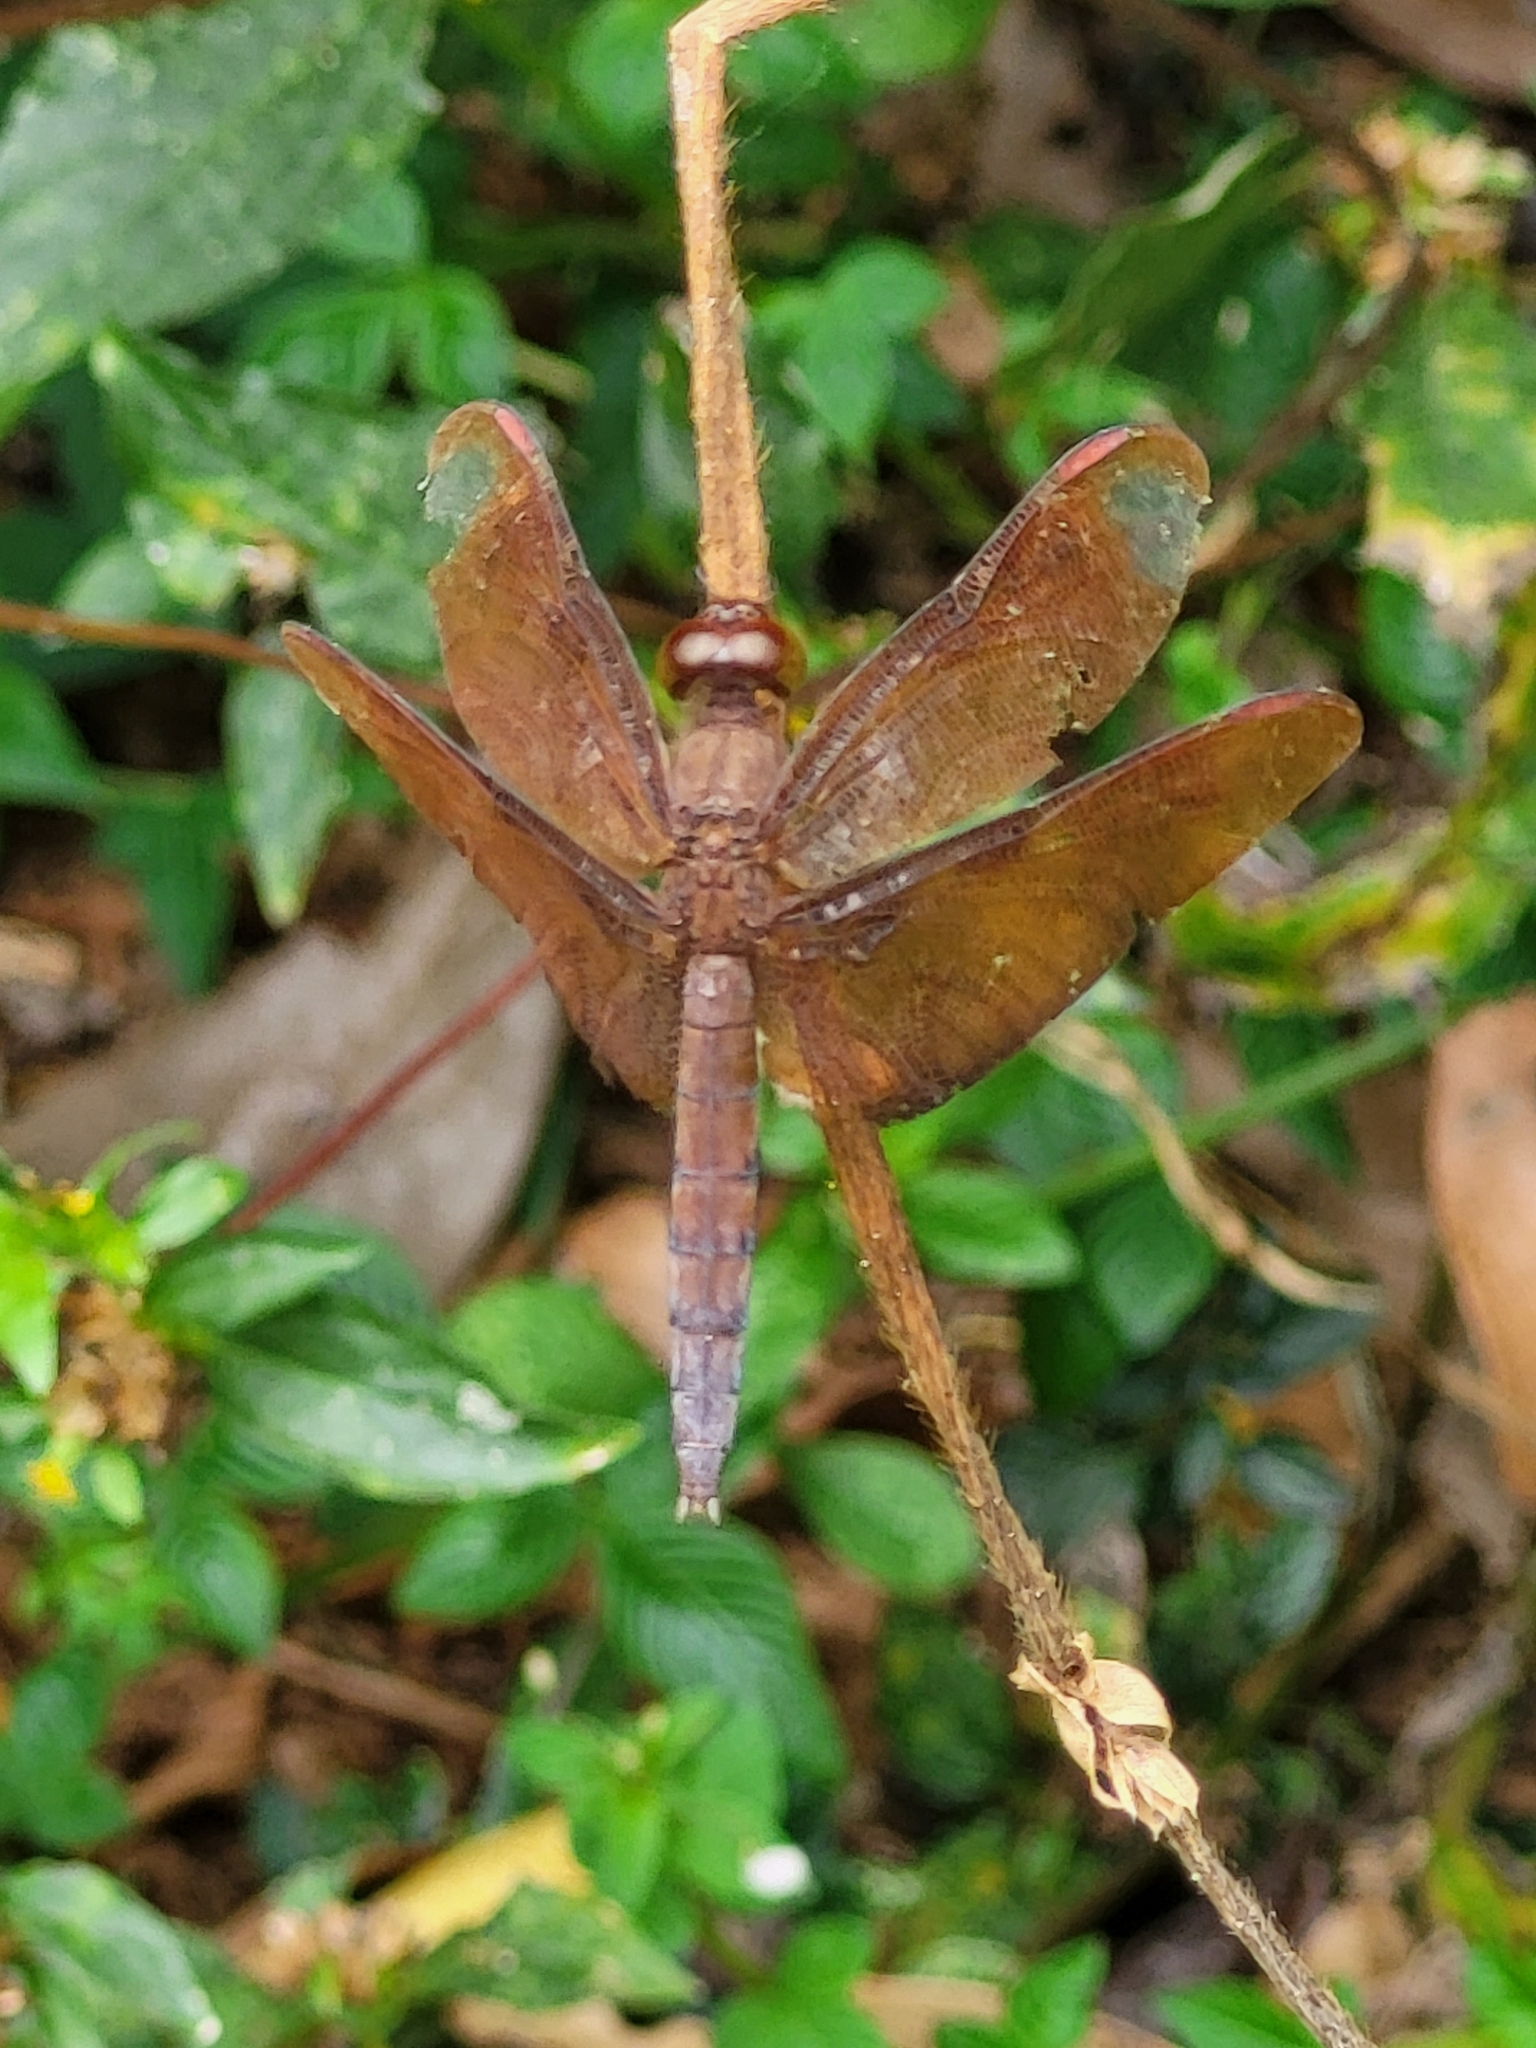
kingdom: Animalia
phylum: Arthropoda
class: Insecta
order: Odonata
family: Libellulidae
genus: Neurothemis
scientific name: Neurothemis fulvia
